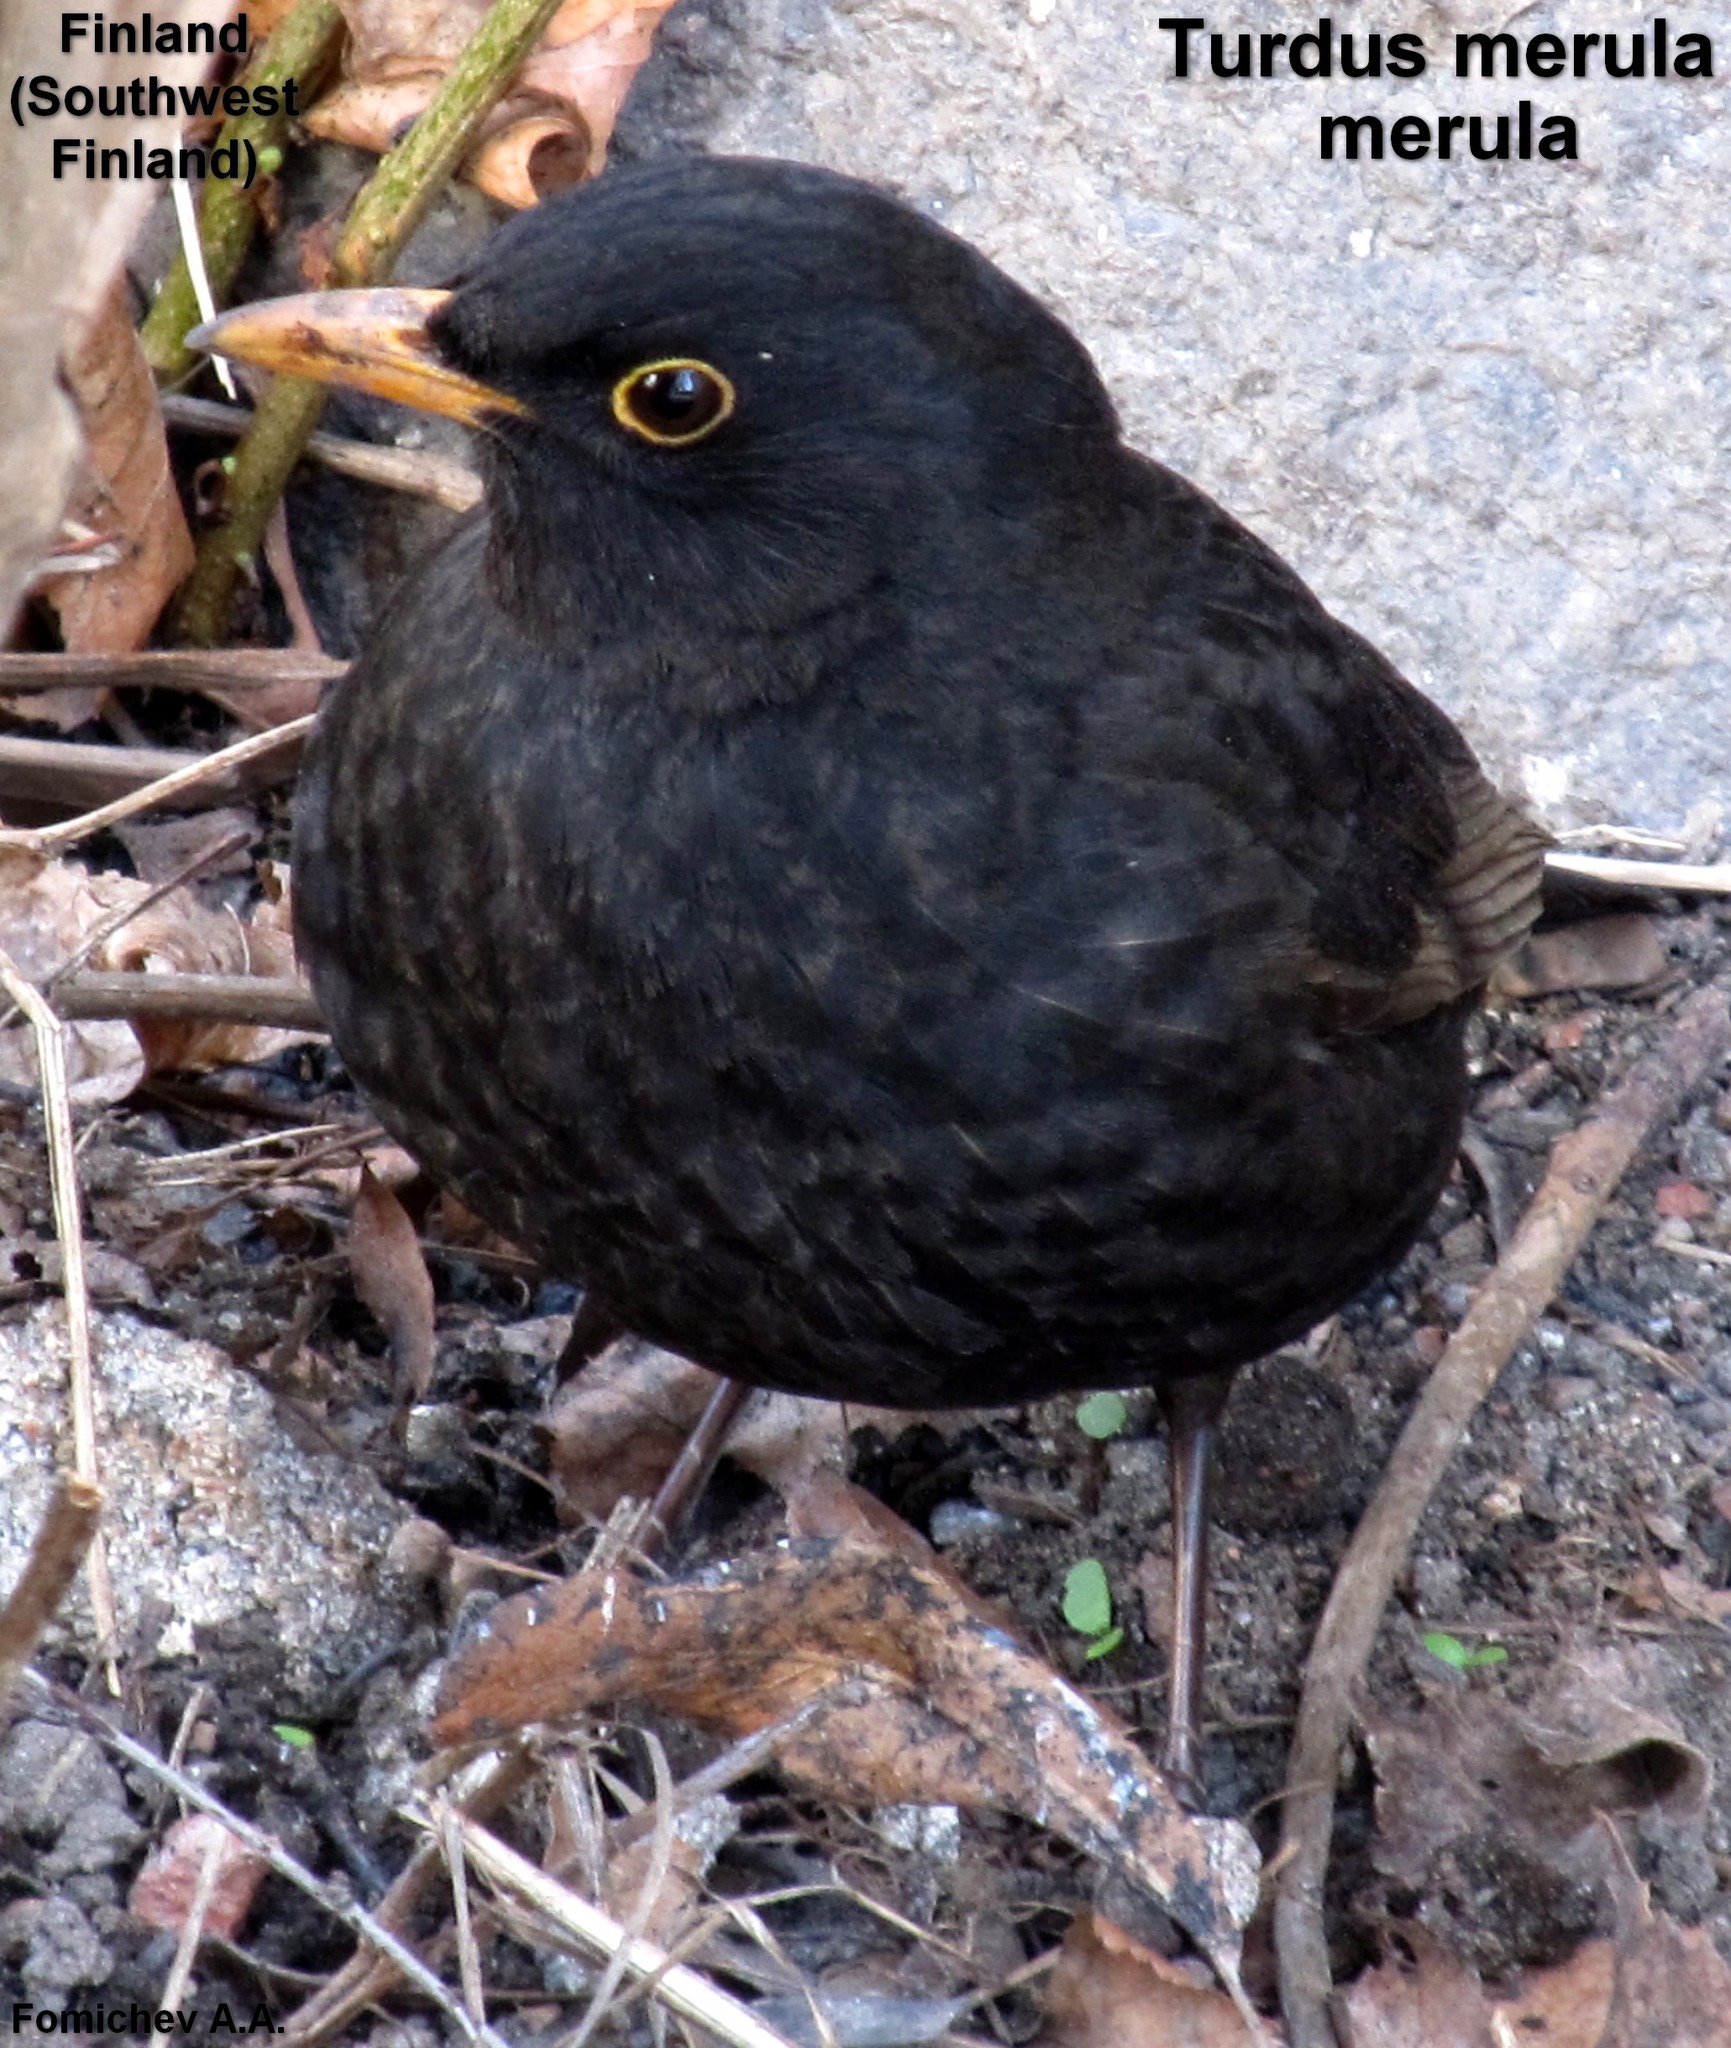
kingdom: Animalia
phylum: Chordata
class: Aves
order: Passeriformes
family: Turdidae
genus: Turdus
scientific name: Turdus merula
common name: Common blackbird
